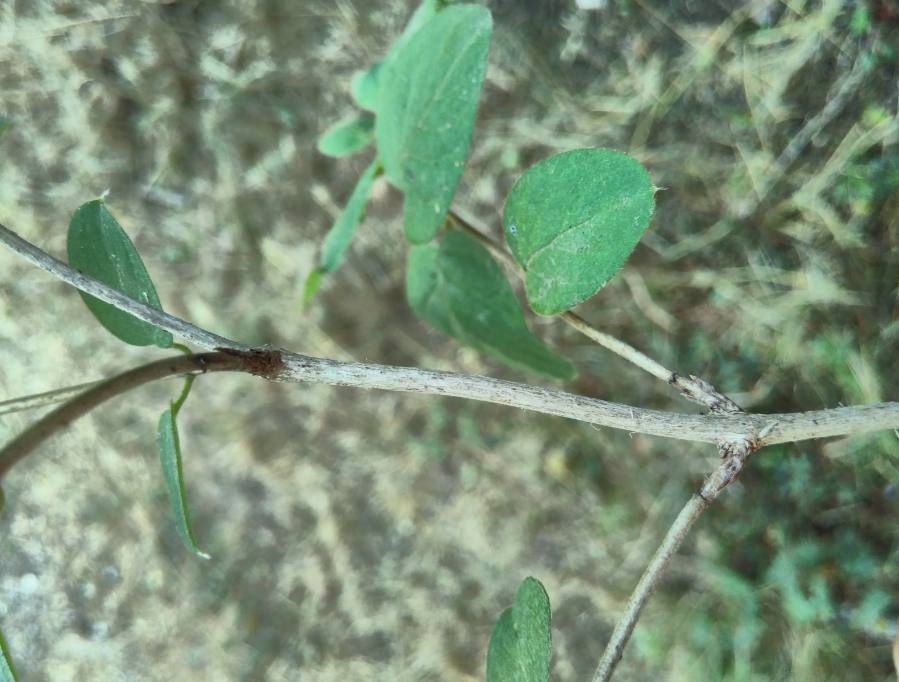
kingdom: Plantae
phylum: Tracheophyta
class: Magnoliopsida
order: Dipsacales
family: Caprifoliaceae
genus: Lonicera
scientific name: Lonicera xylosteum
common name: Fly honeysuckle
